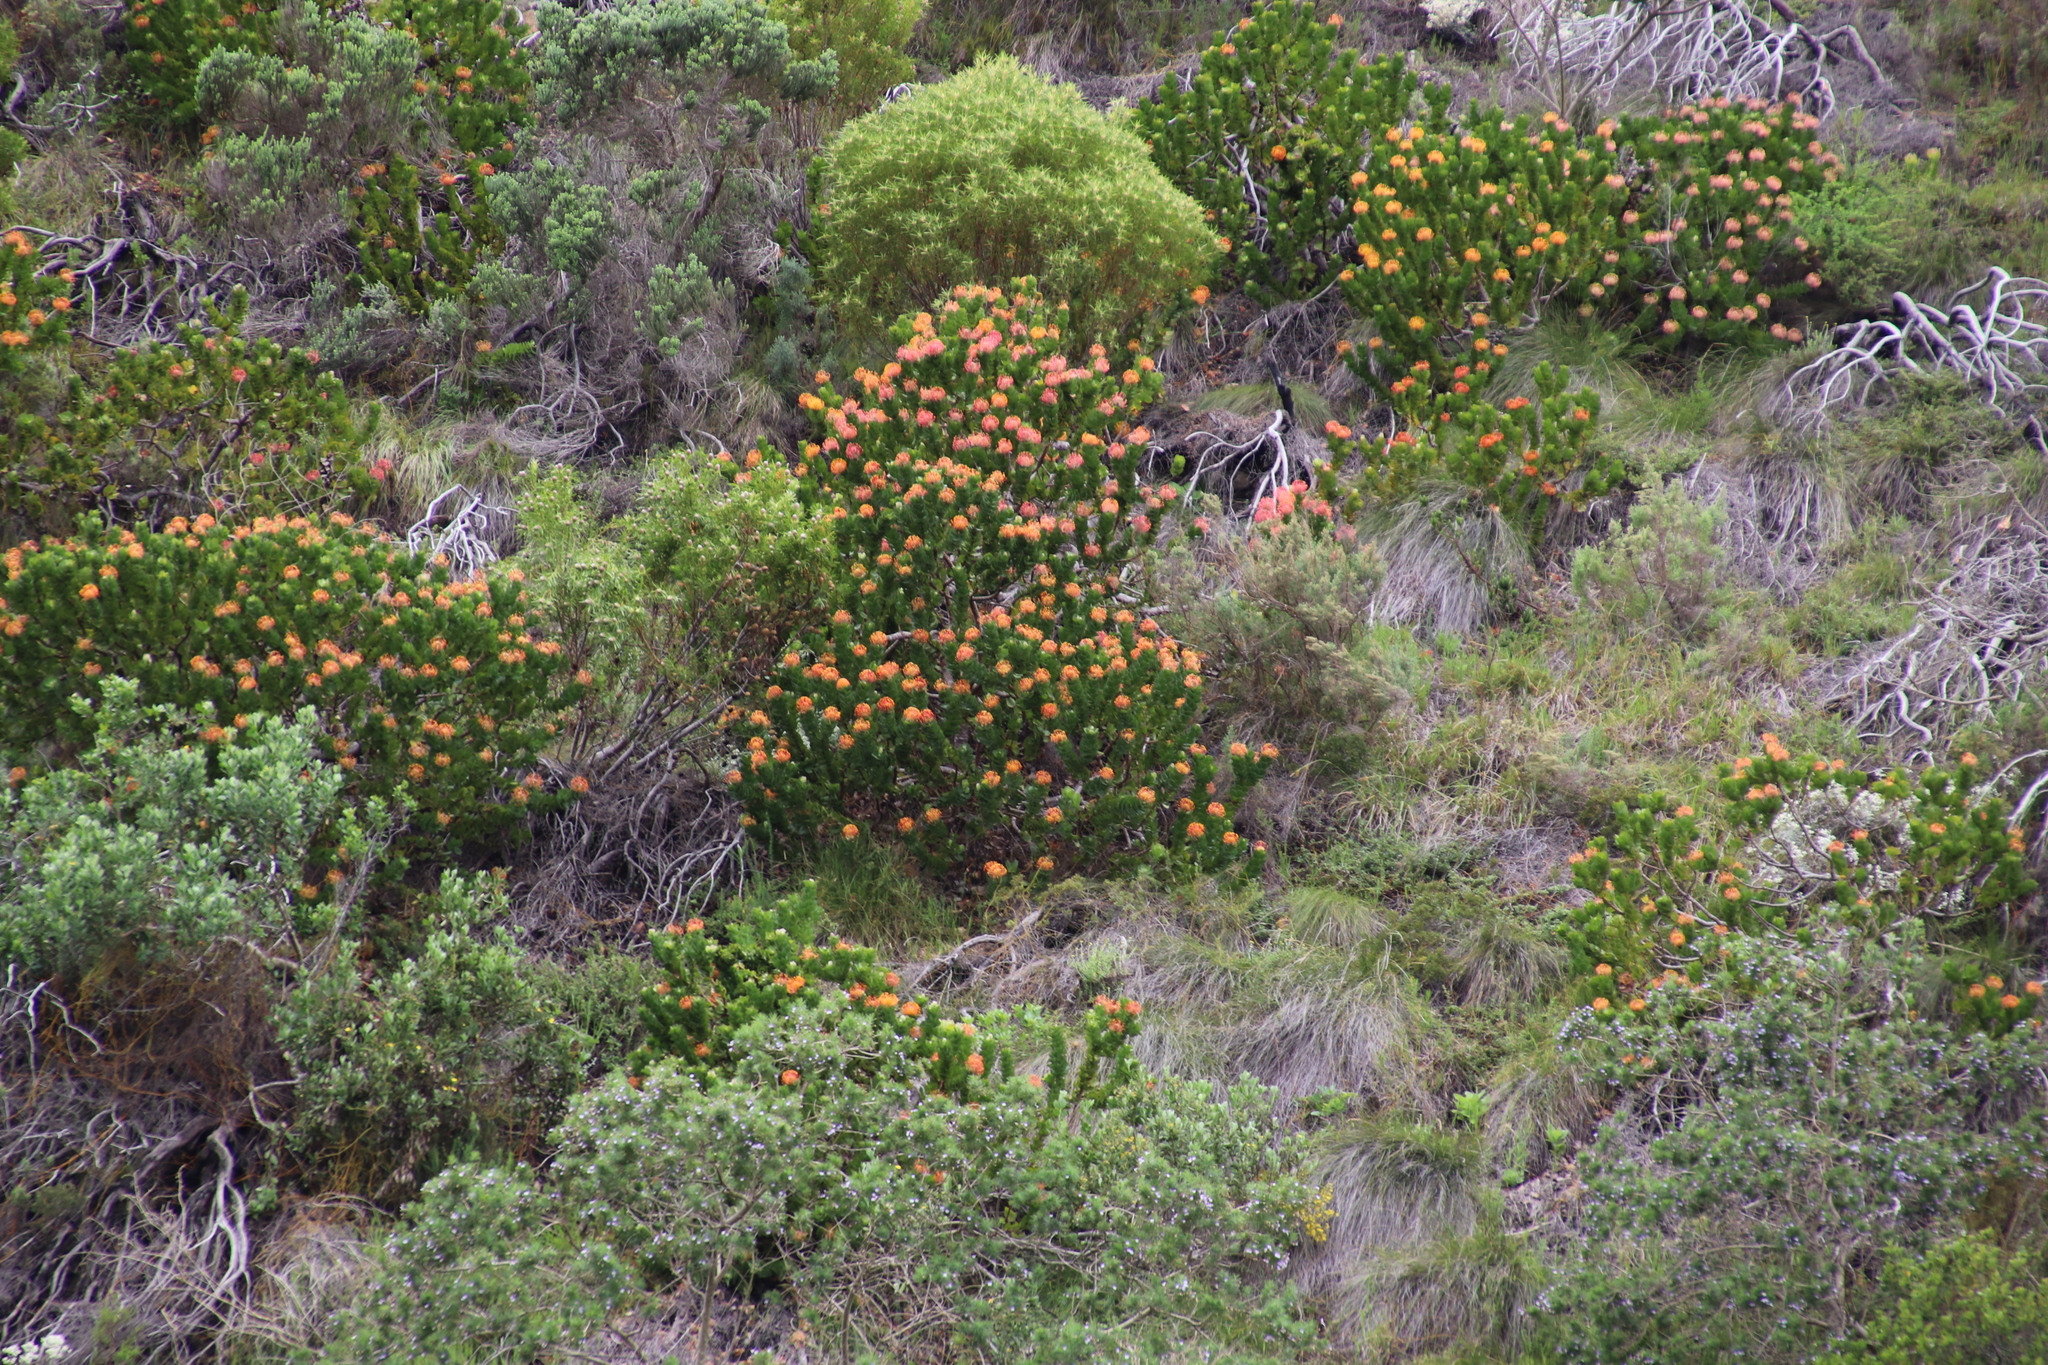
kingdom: Plantae
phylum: Tracheophyta
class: Magnoliopsida
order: Proteales
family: Proteaceae
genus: Leucospermum
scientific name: Leucospermum patersonii
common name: False tree pincushion
